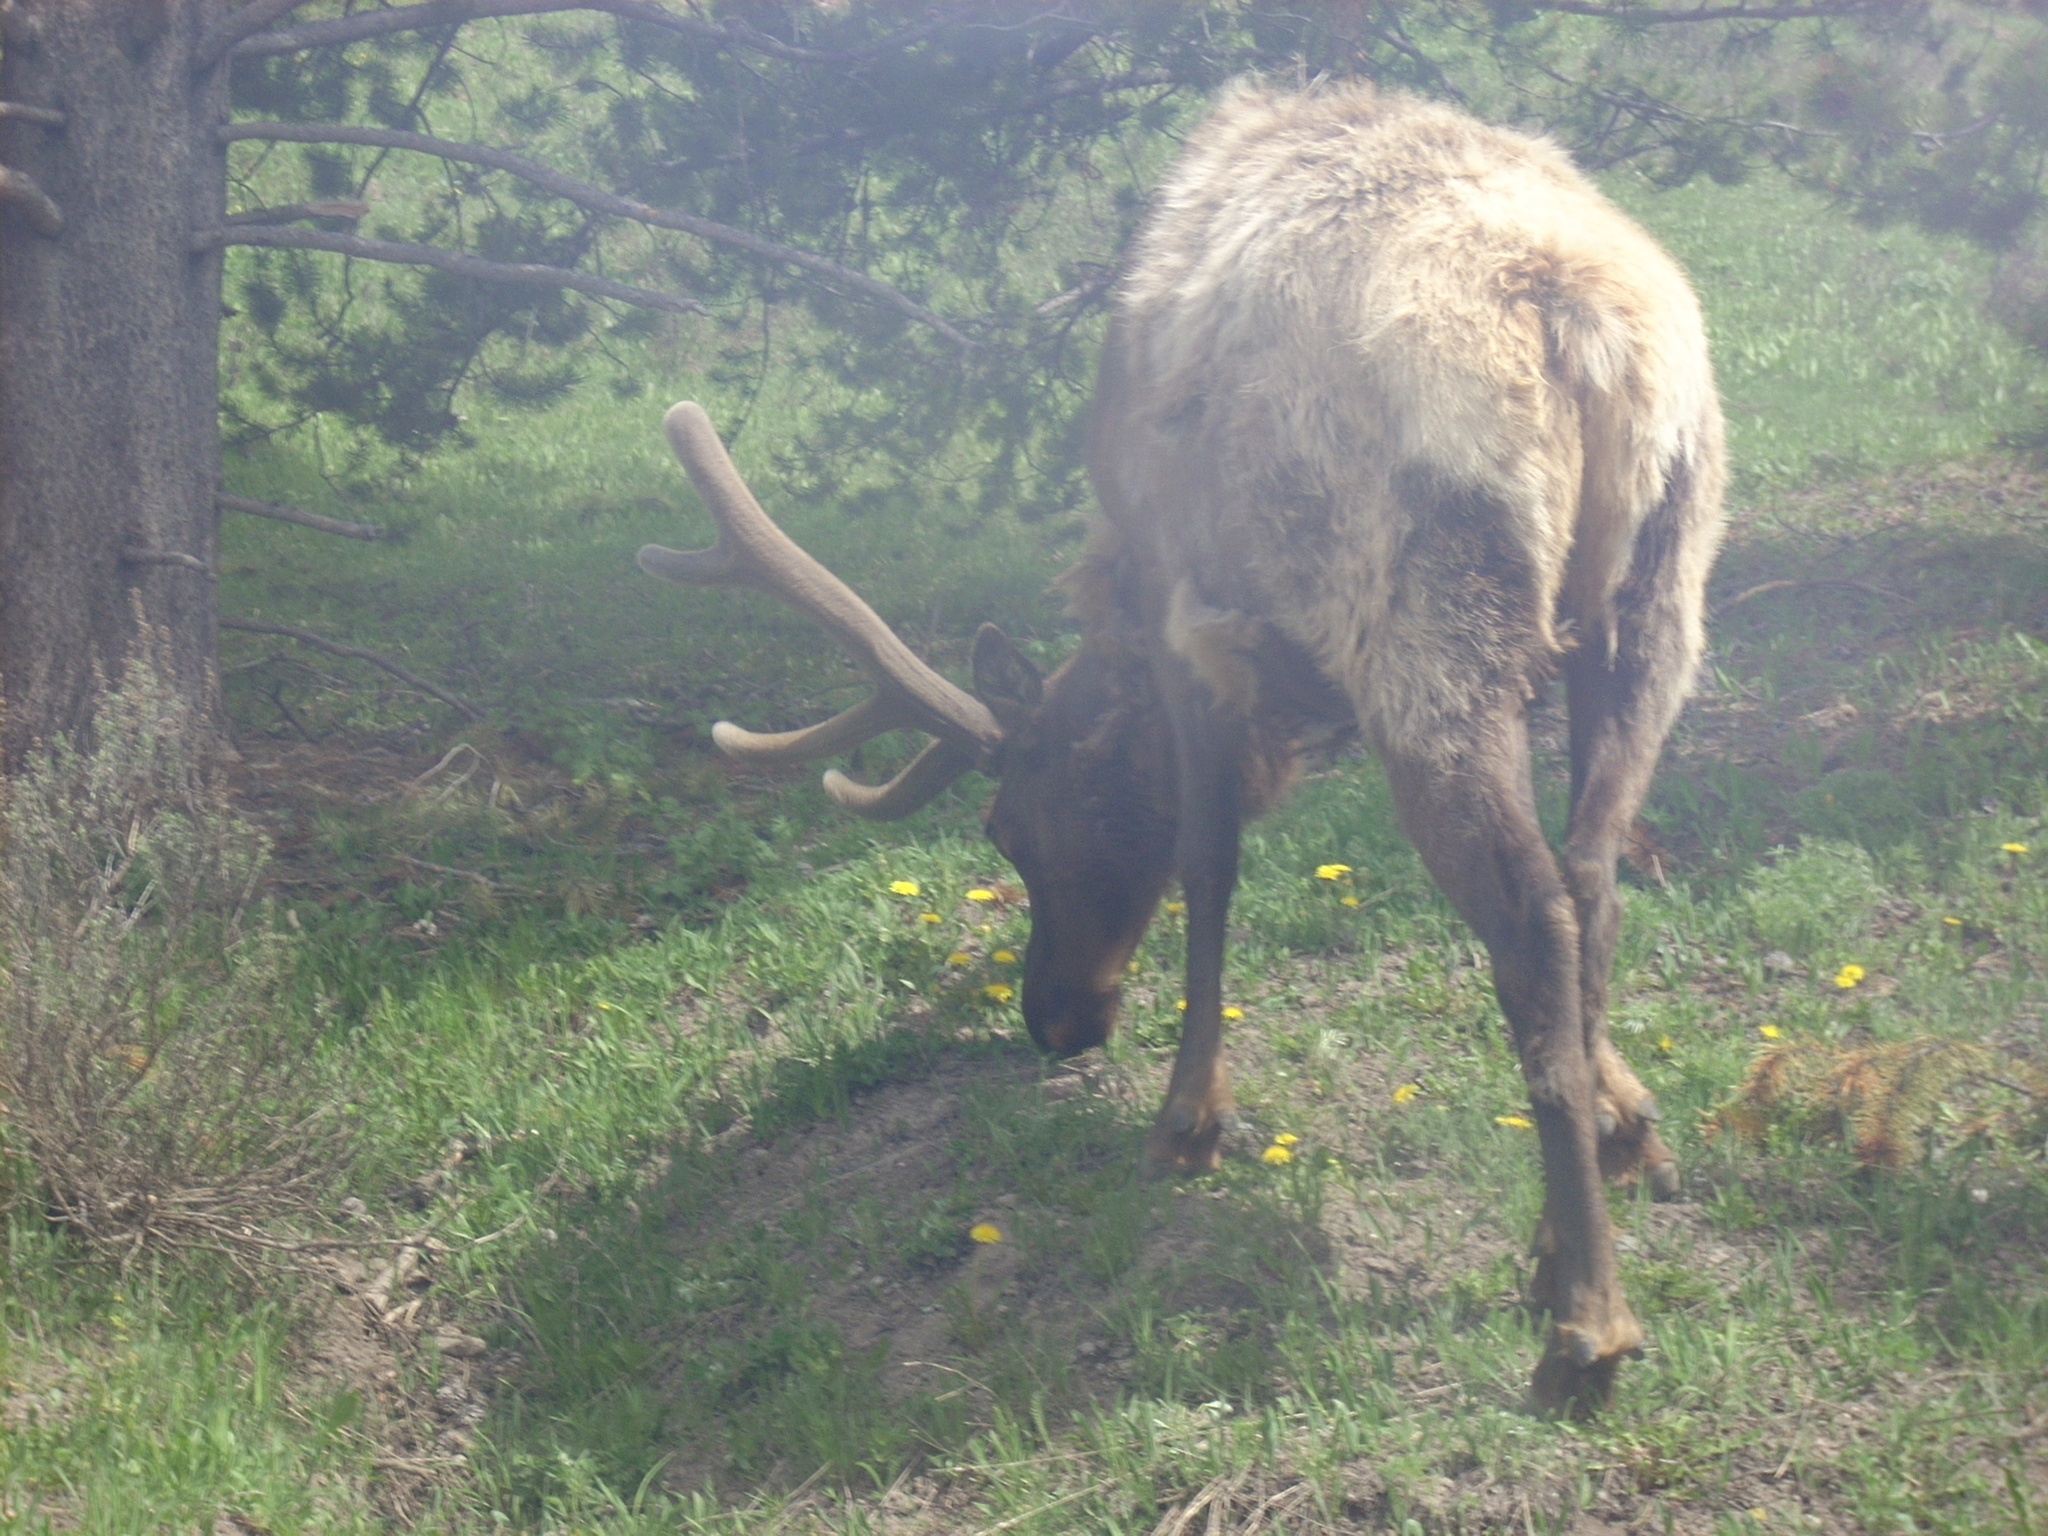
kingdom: Animalia
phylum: Chordata
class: Mammalia
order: Artiodactyla
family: Cervidae
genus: Cervus
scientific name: Cervus elaphus
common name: Red deer
